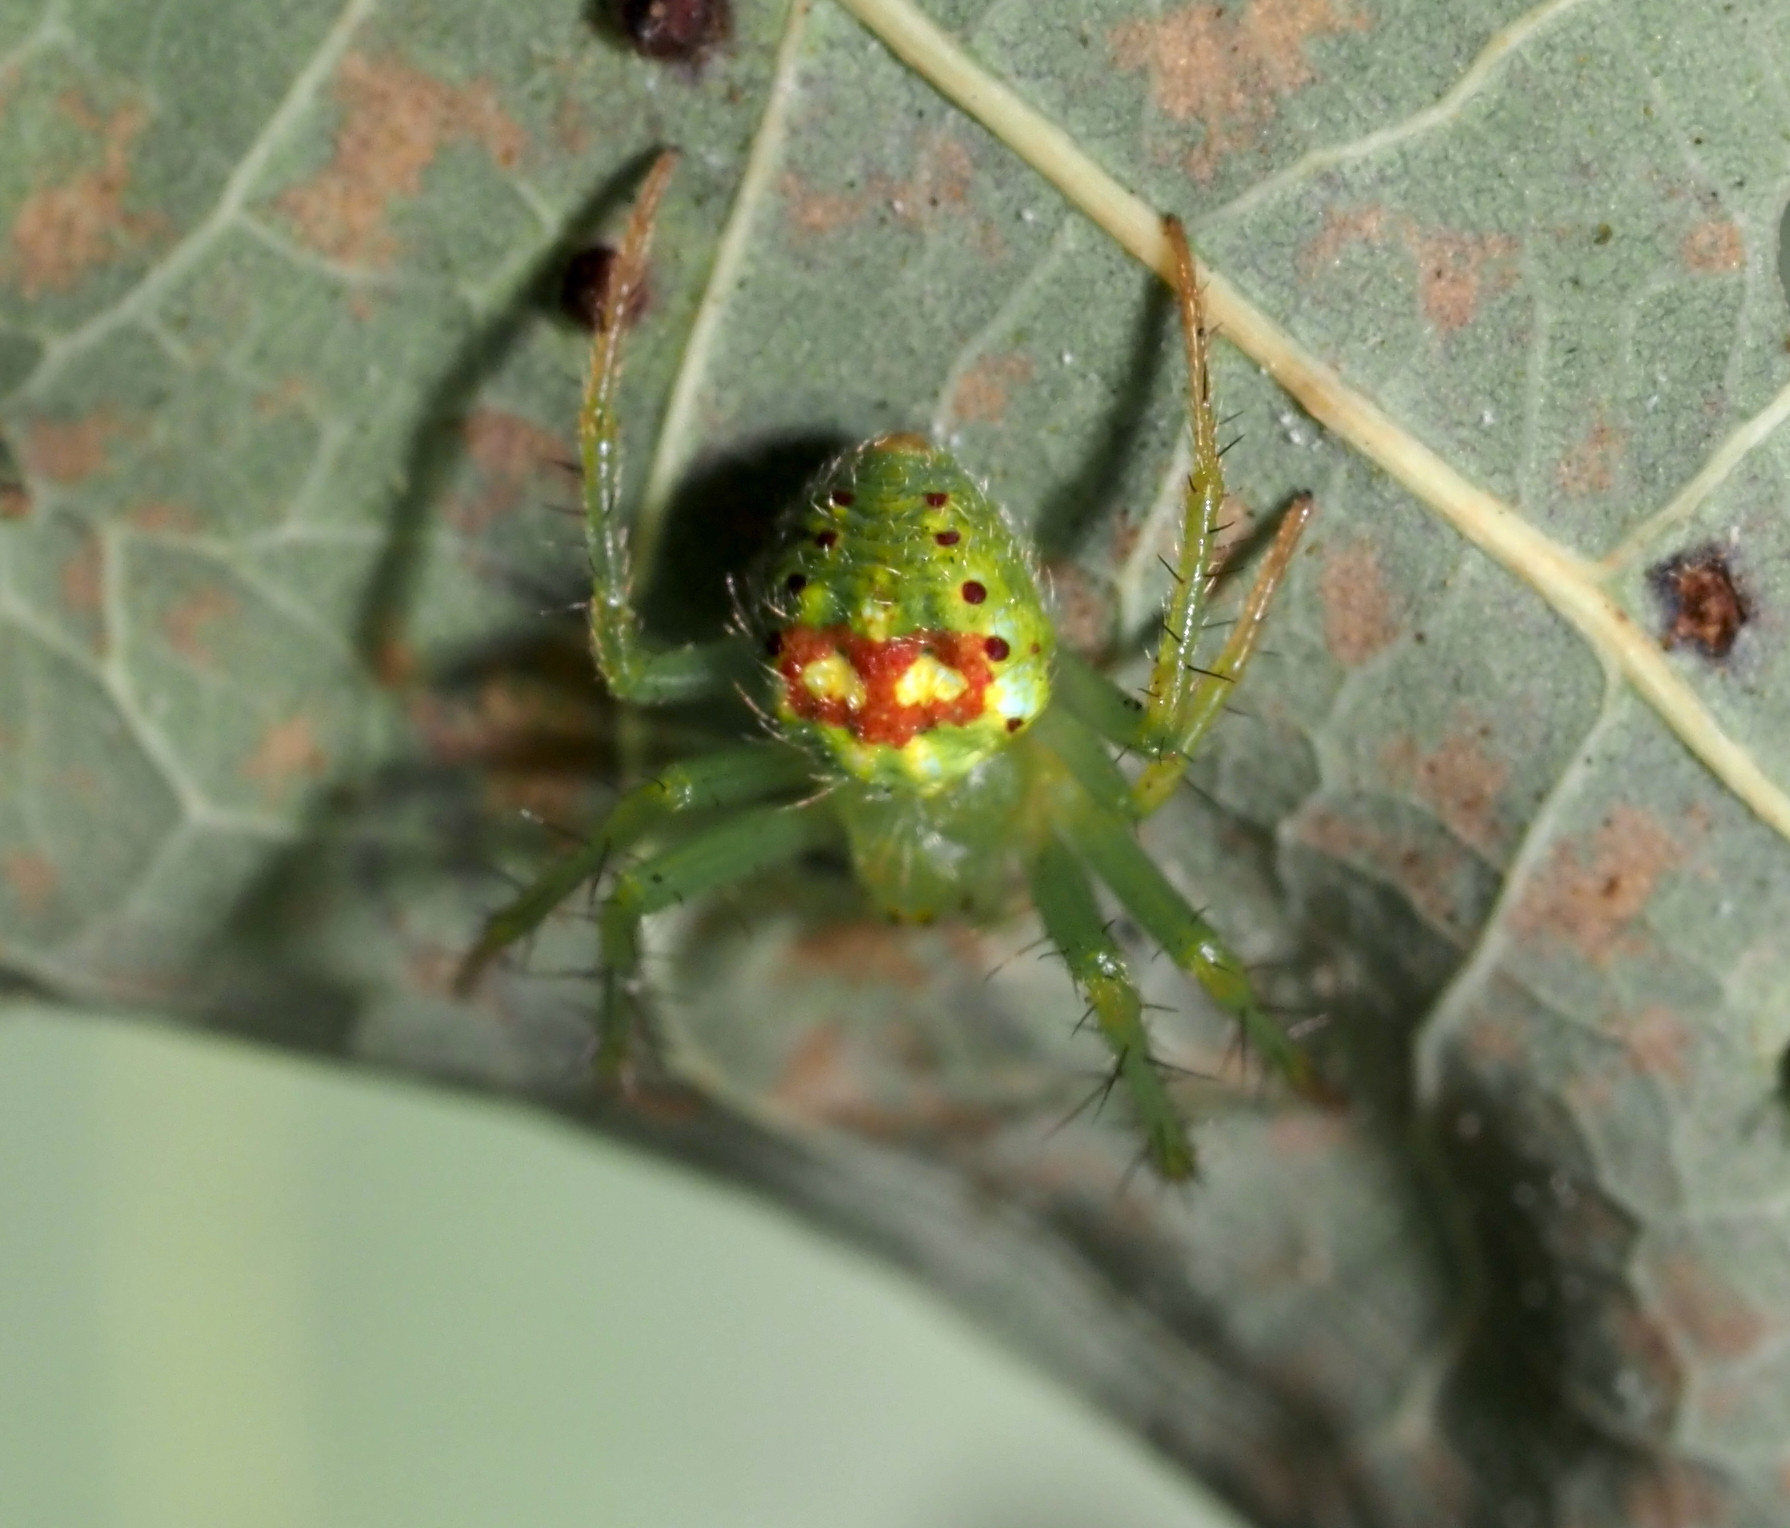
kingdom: Animalia
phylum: Arthropoda
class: Arachnida
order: Araneae
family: Araneidae
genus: Araneus
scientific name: Araneus cingulatus
